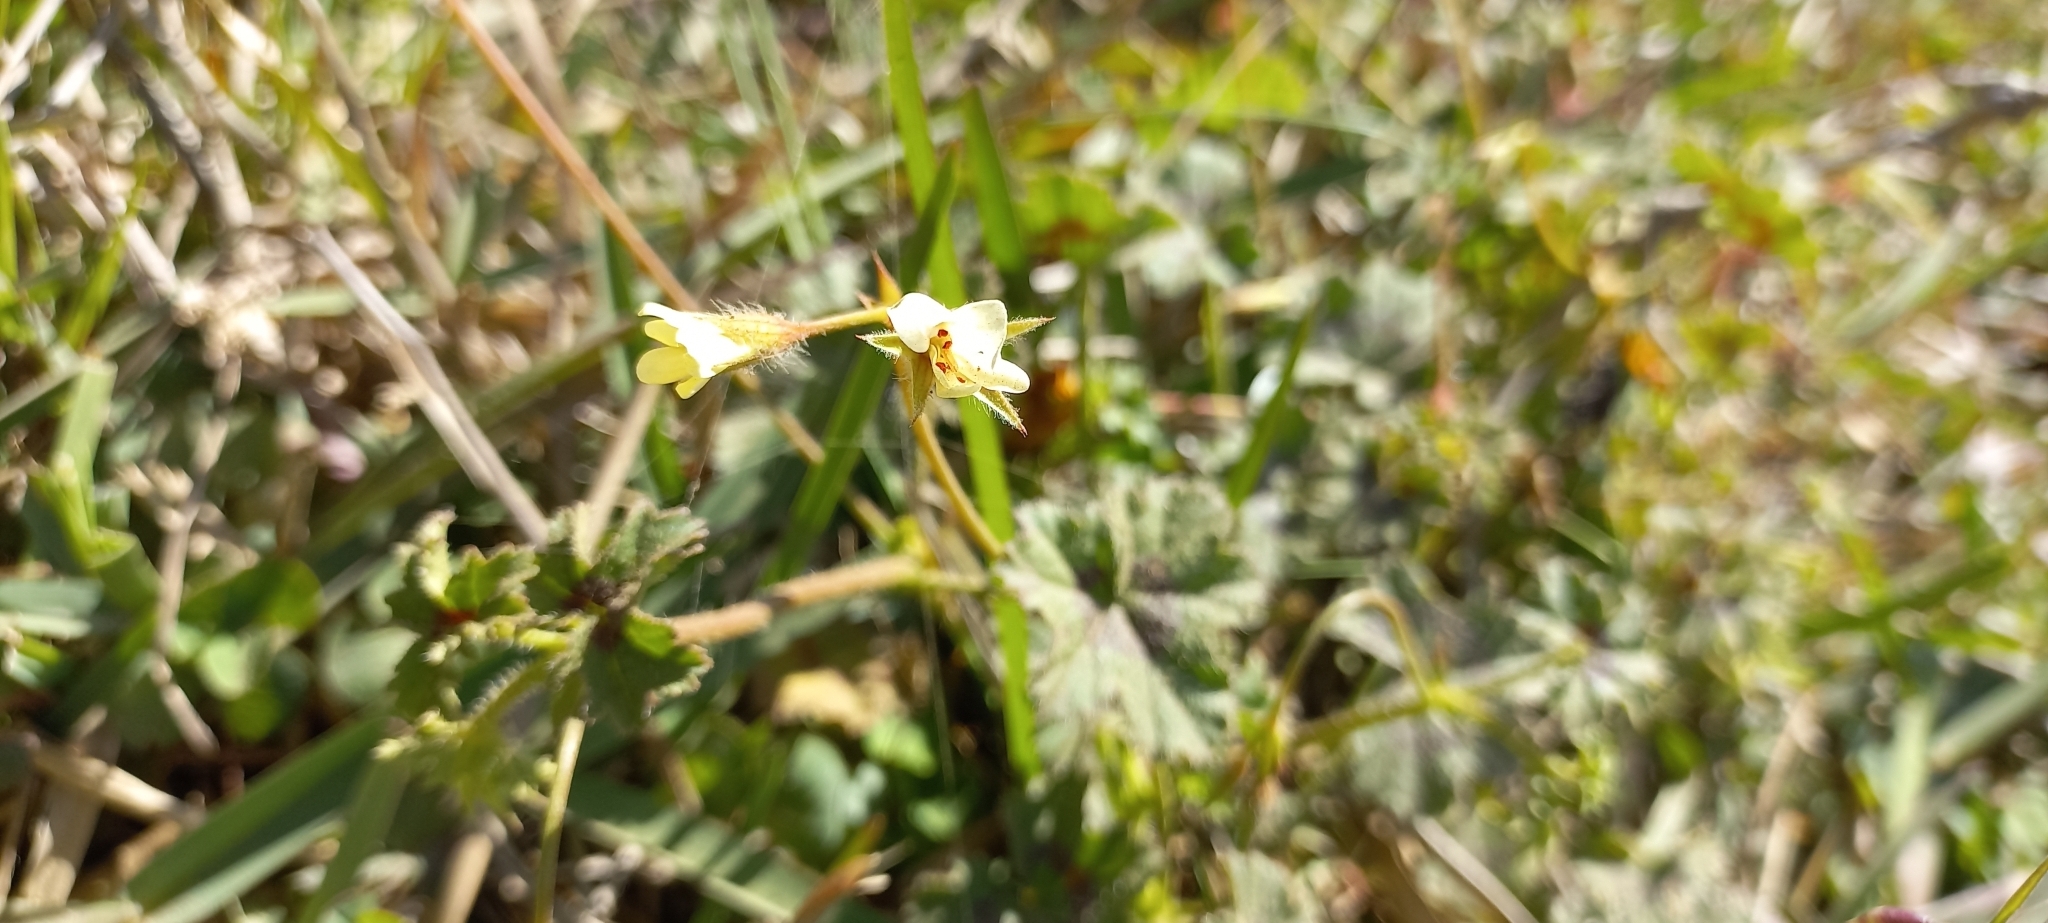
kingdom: Plantae
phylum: Tracheophyta
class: Magnoliopsida
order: Geraniales
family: Geraniaceae
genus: Pelargonium
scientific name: Pelargonium elongatum
